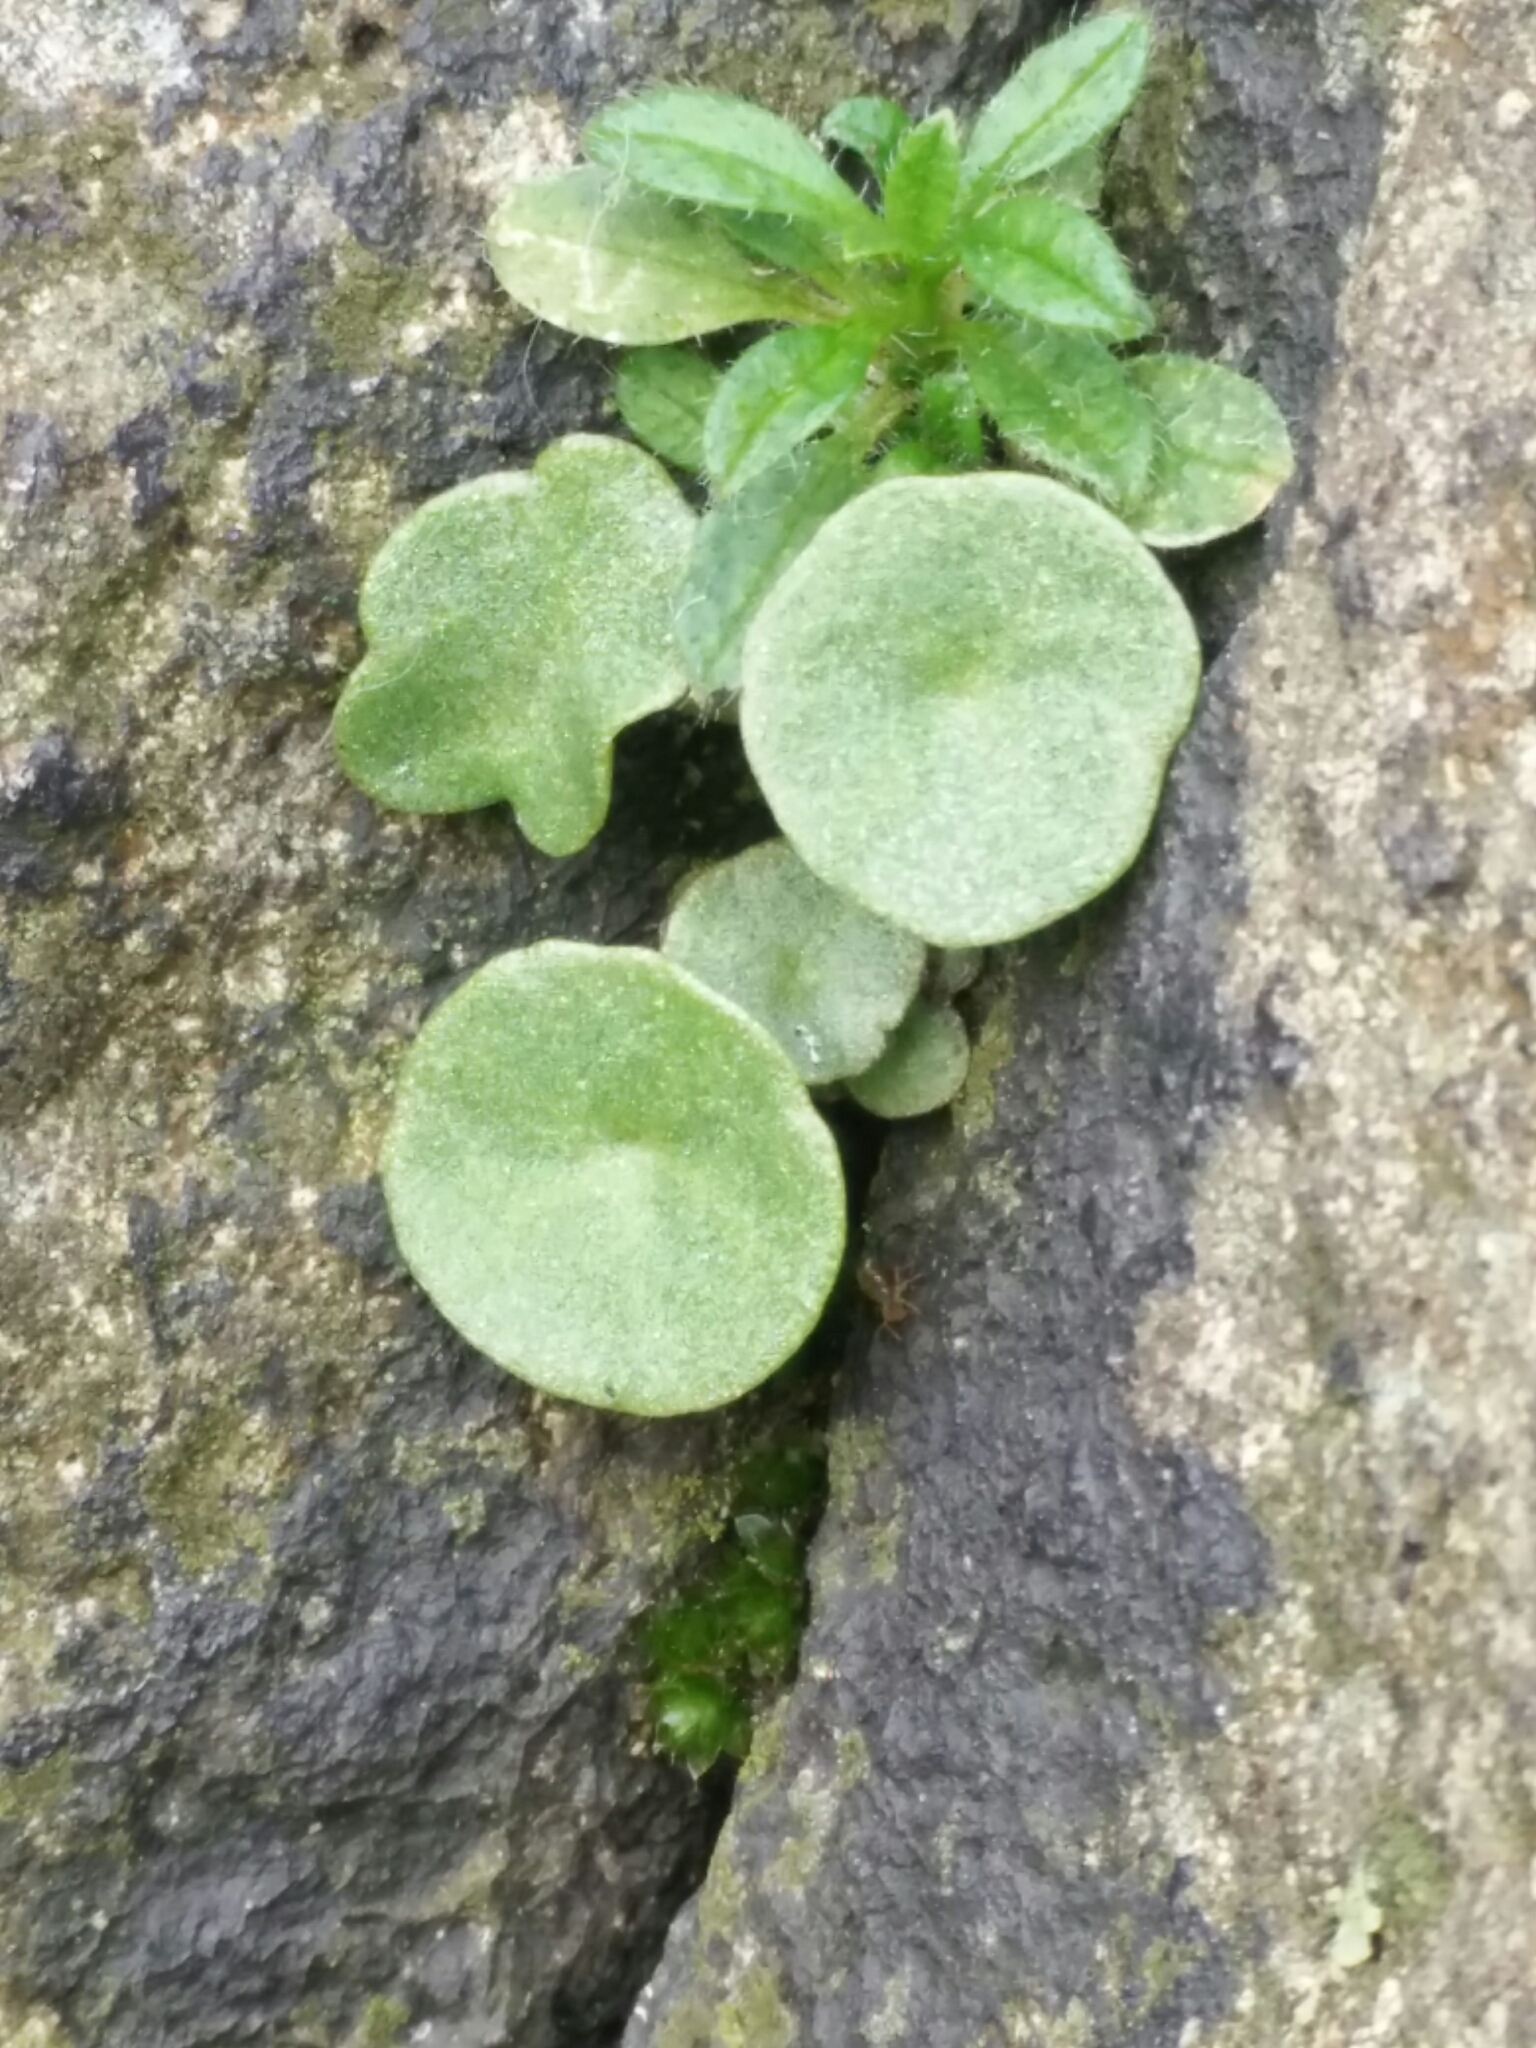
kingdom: Plantae
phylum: Tracheophyta
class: Magnoliopsida
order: Saxifragales
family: Crassulaceae
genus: Umbilicus
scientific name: Umbilicus rupestris
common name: Navelwort
